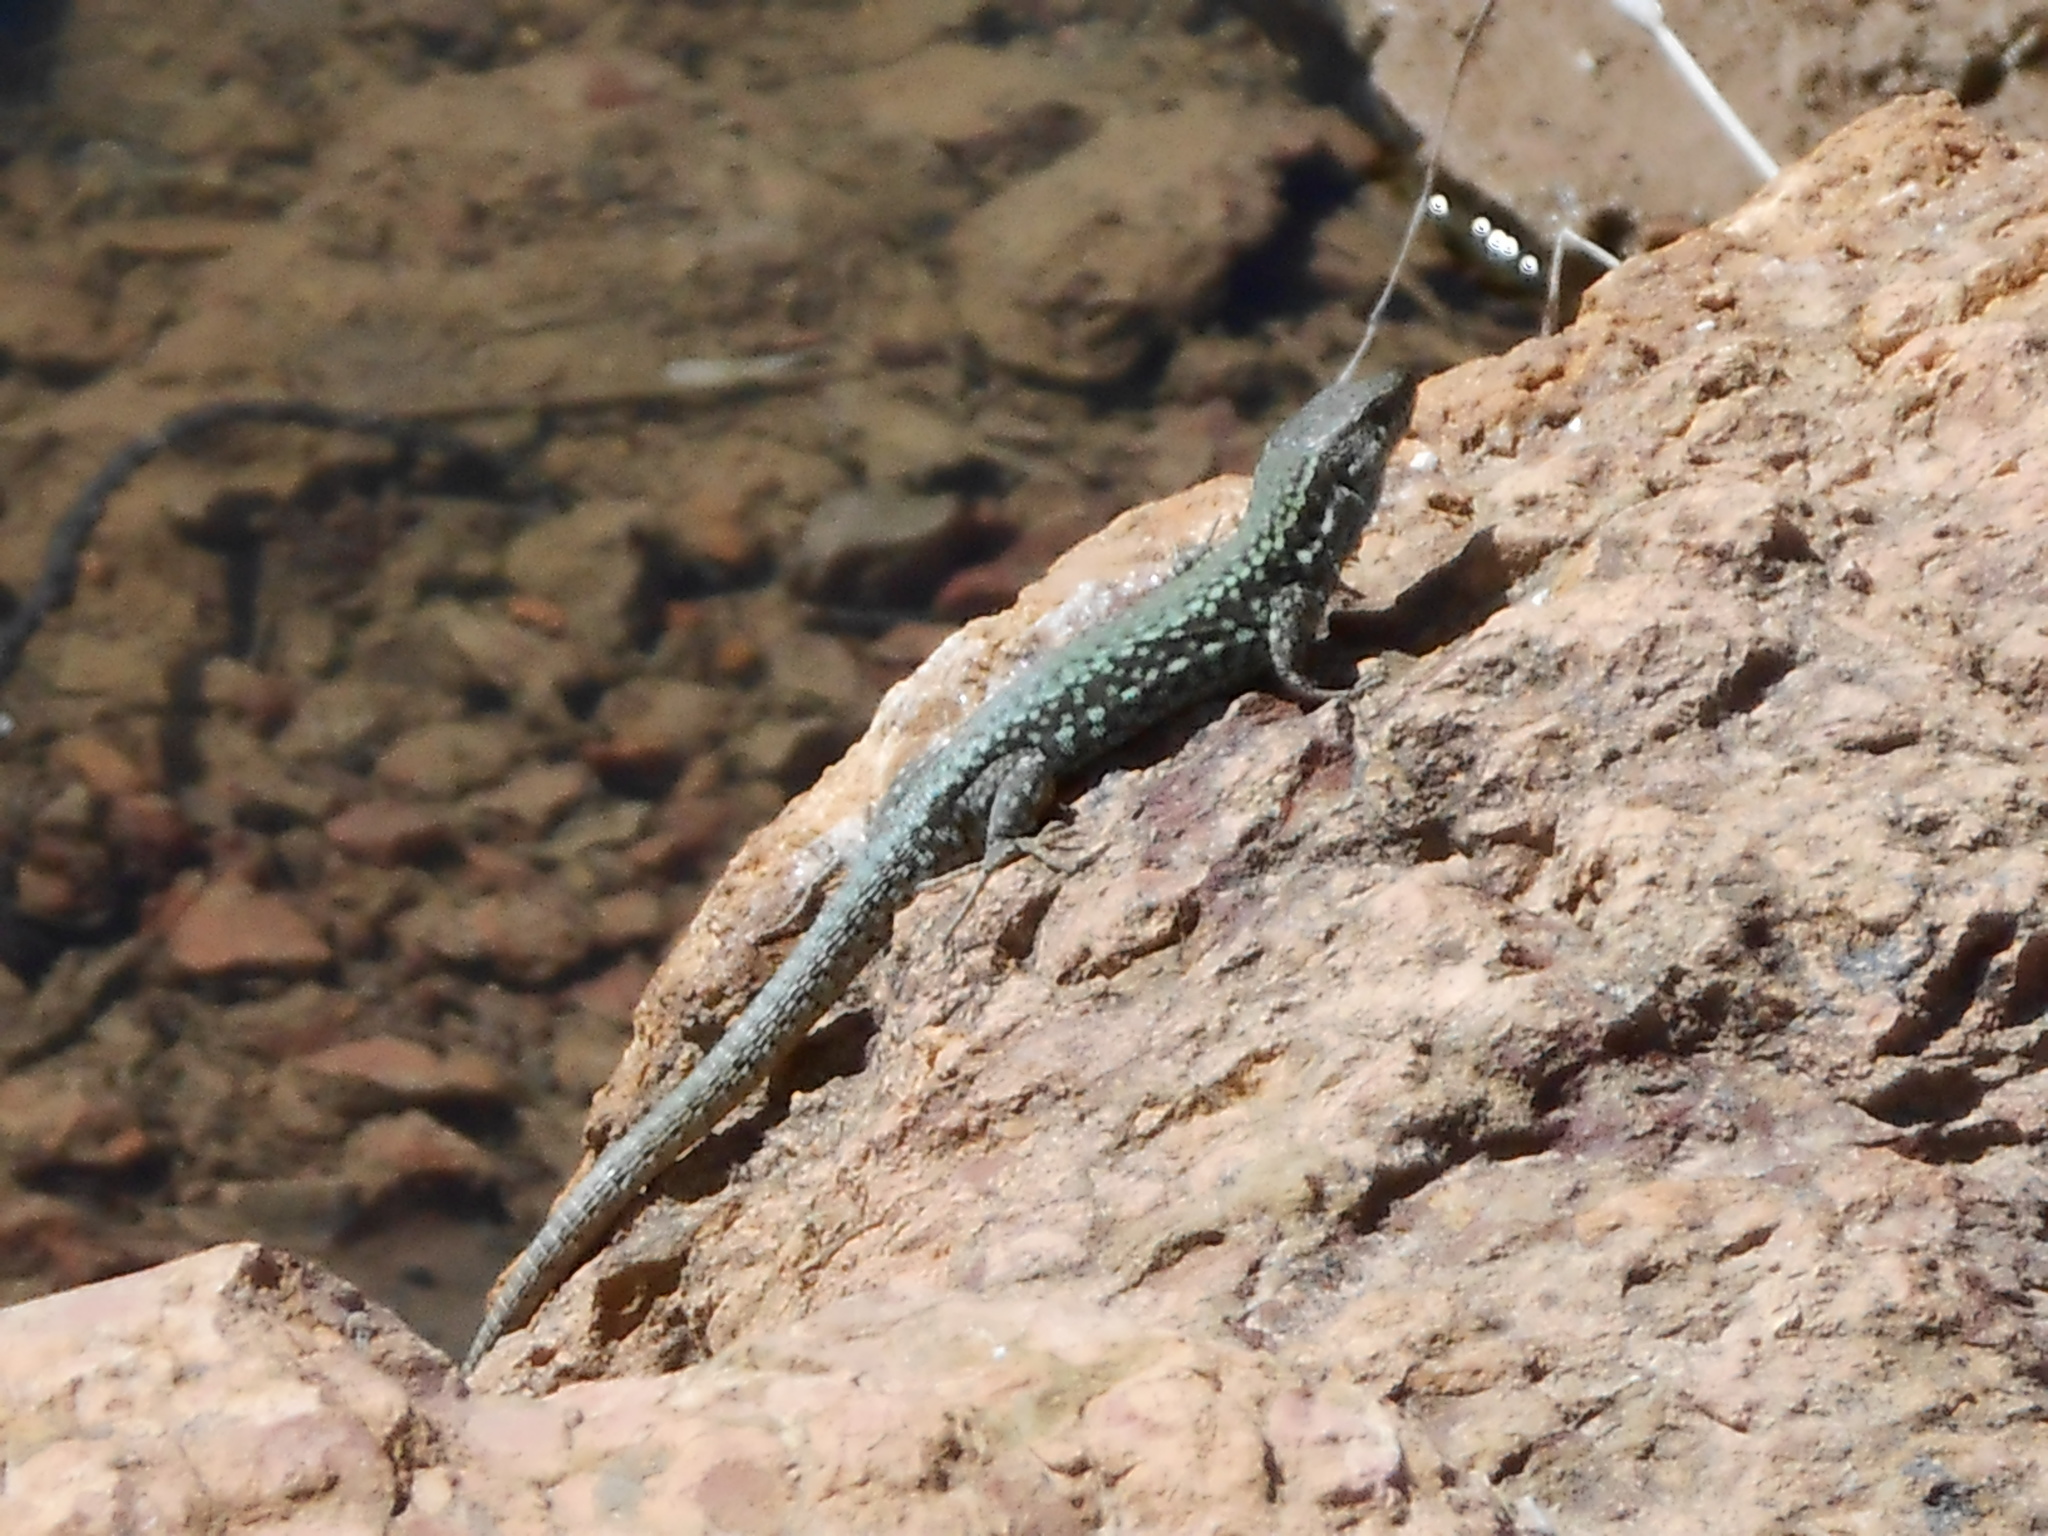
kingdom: Animalia
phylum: Chordata
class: Squamata
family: Lacertidae
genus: Podarcis
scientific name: Podarcis muralis
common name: Common wall lizard
